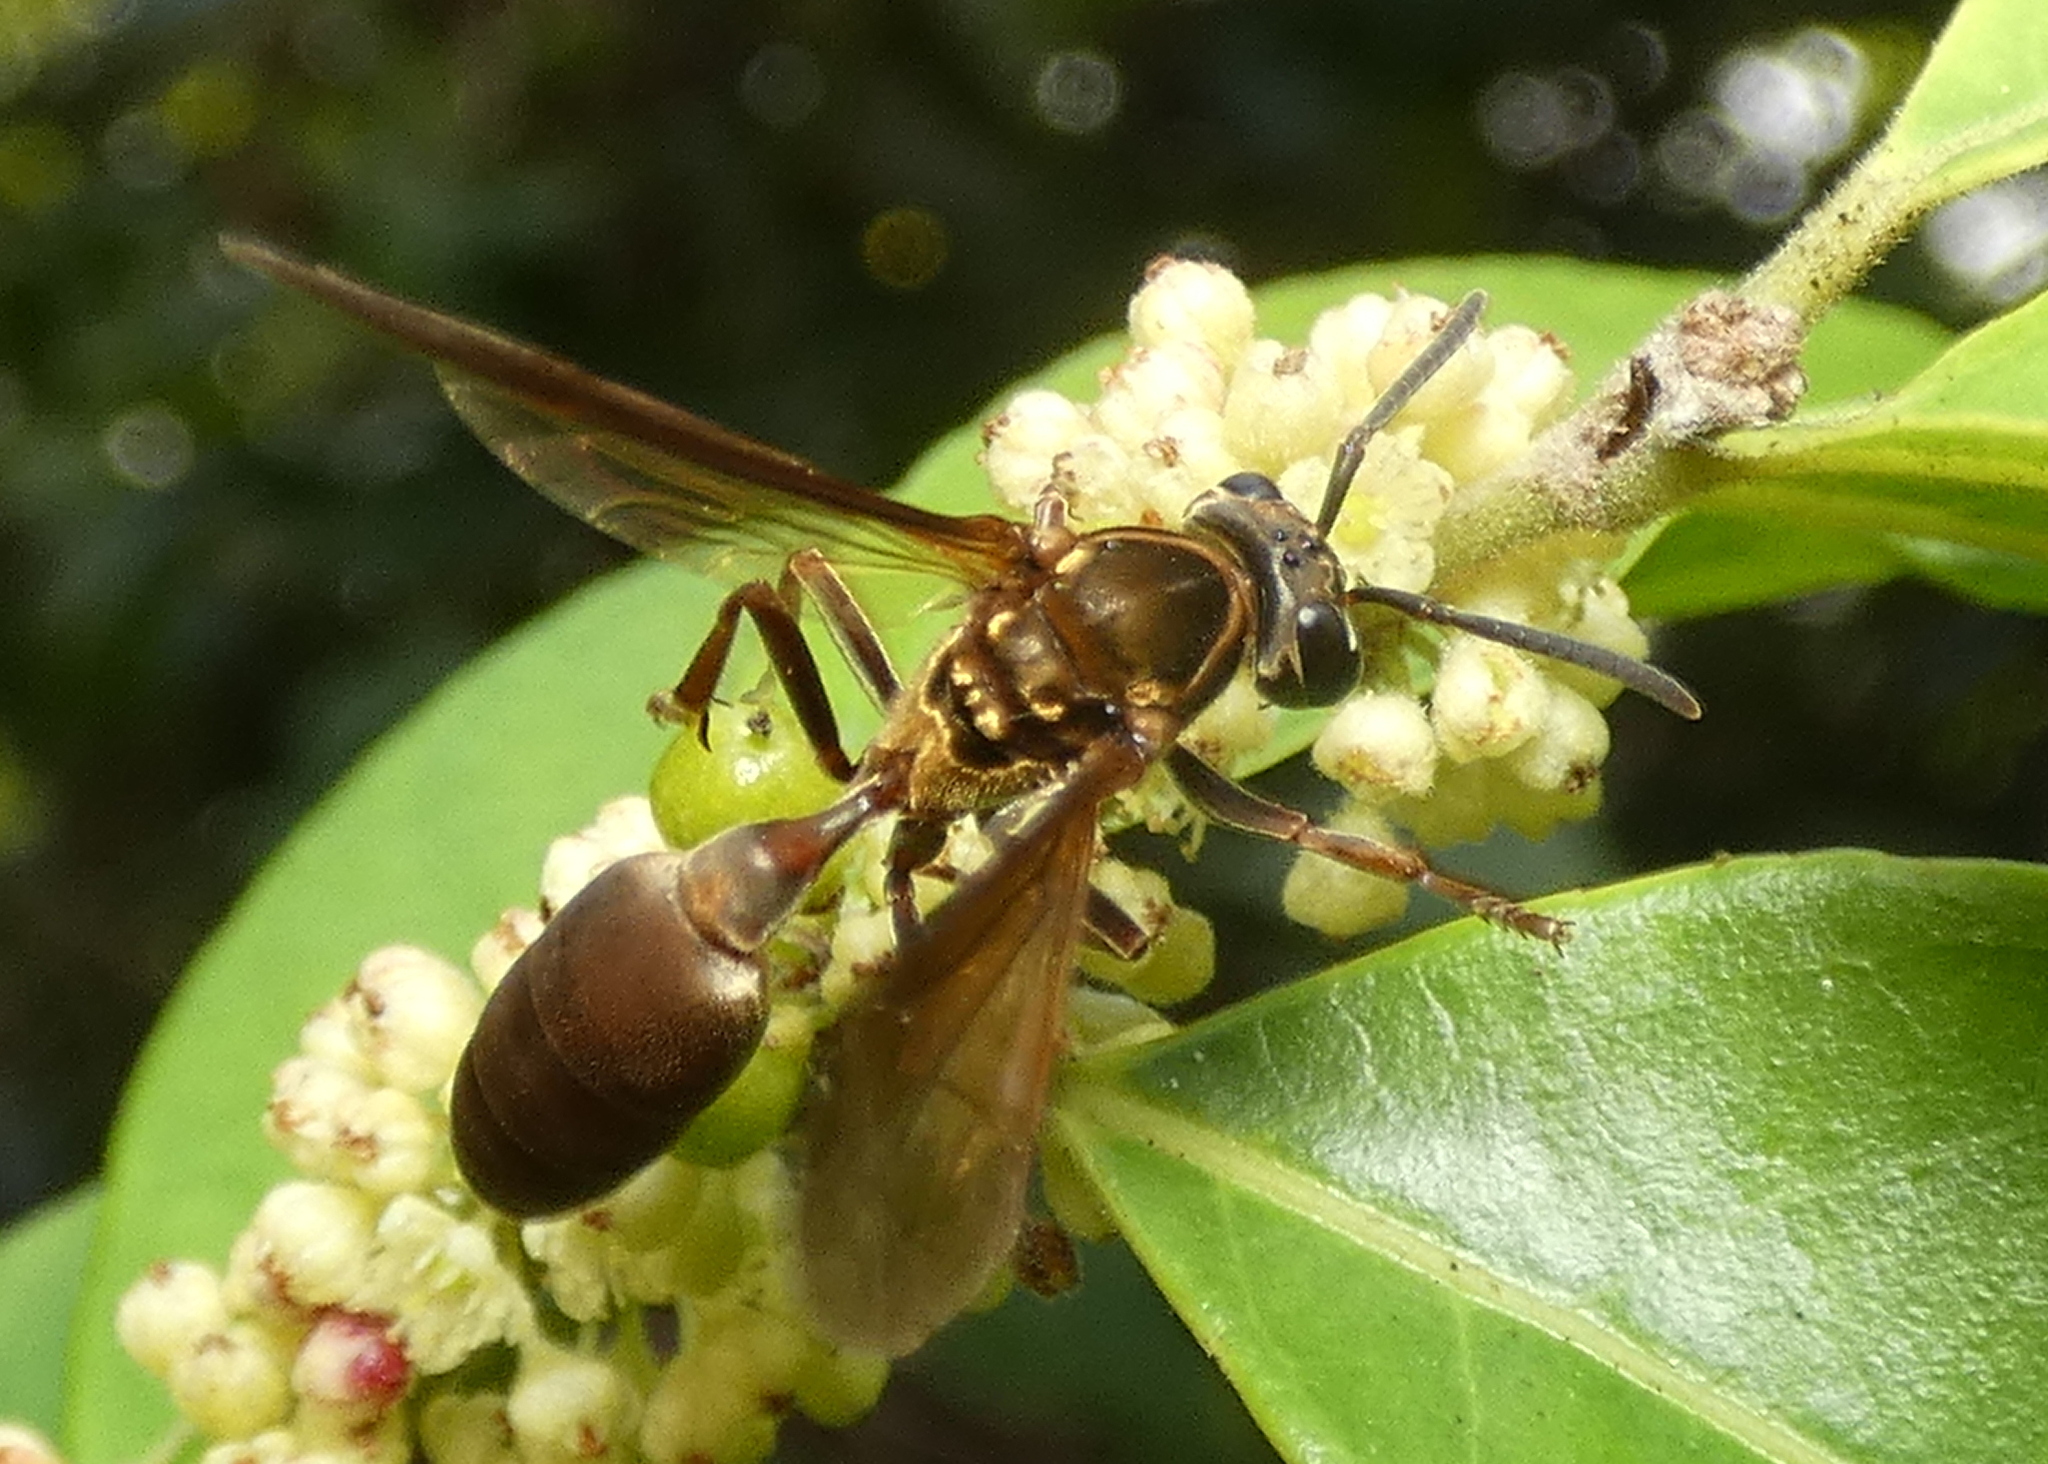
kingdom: Animalia
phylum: Arthropoda
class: Insecta
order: Hymenoptera
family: Eumenidae
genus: Polybia
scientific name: Polybia chrysothorax
